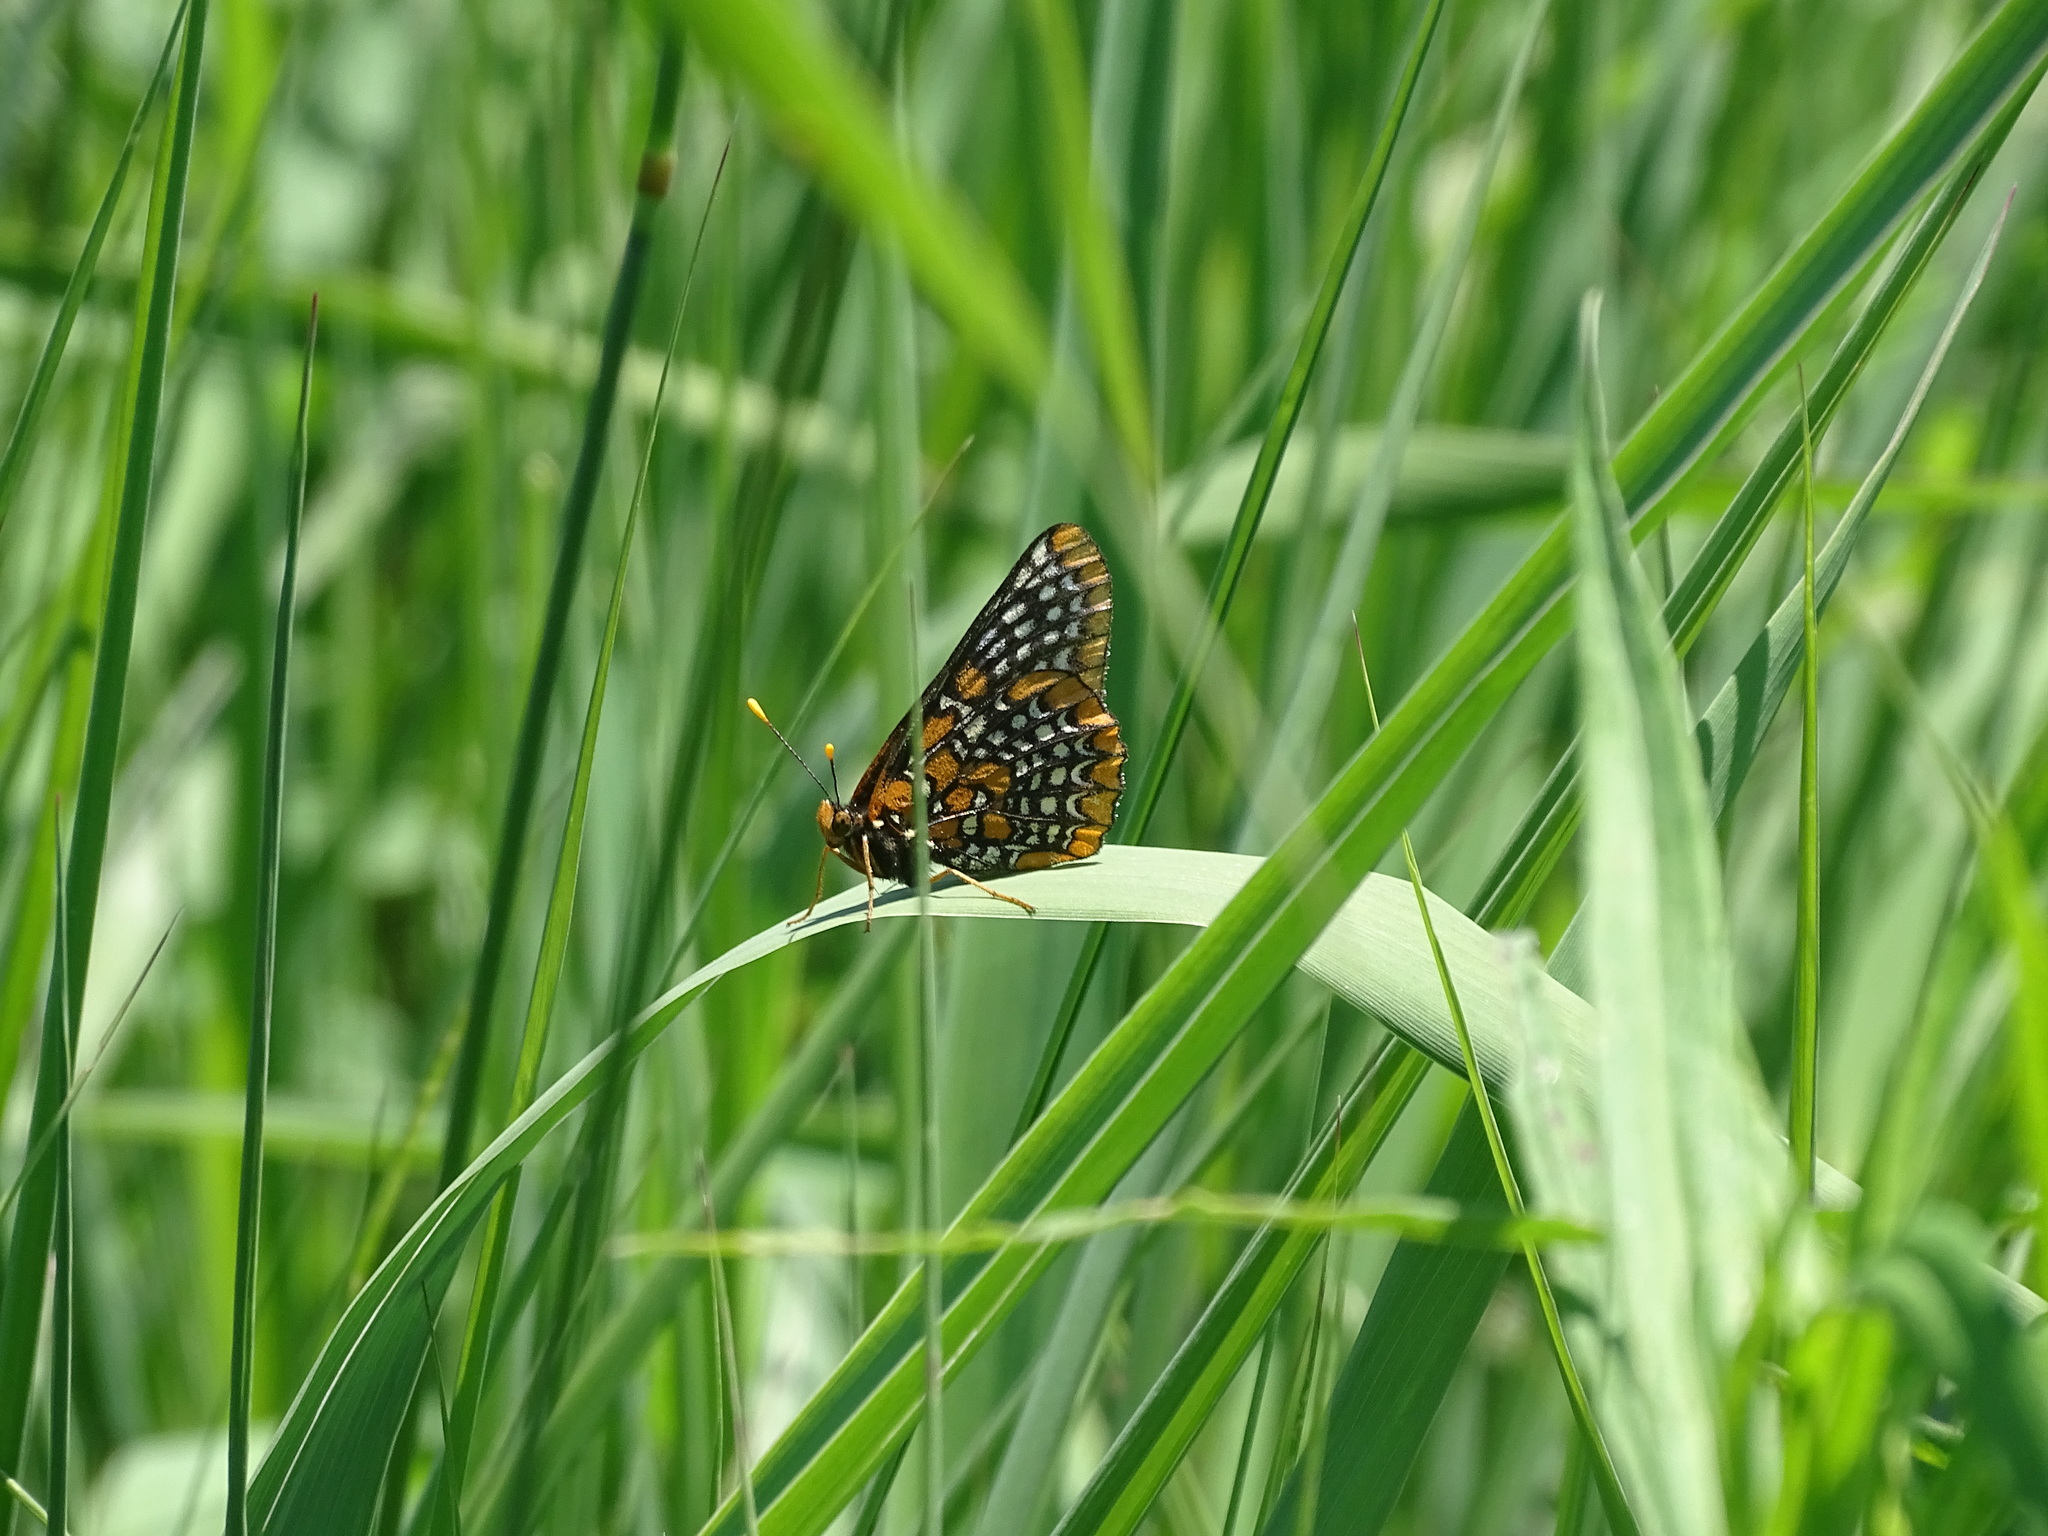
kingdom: Animalia
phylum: Arthropoda
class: Insecta
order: Lepidoptera
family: Nymphalidae
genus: Euphydryas
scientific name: Euphydryas phaeton
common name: Baltimore checkerspot
